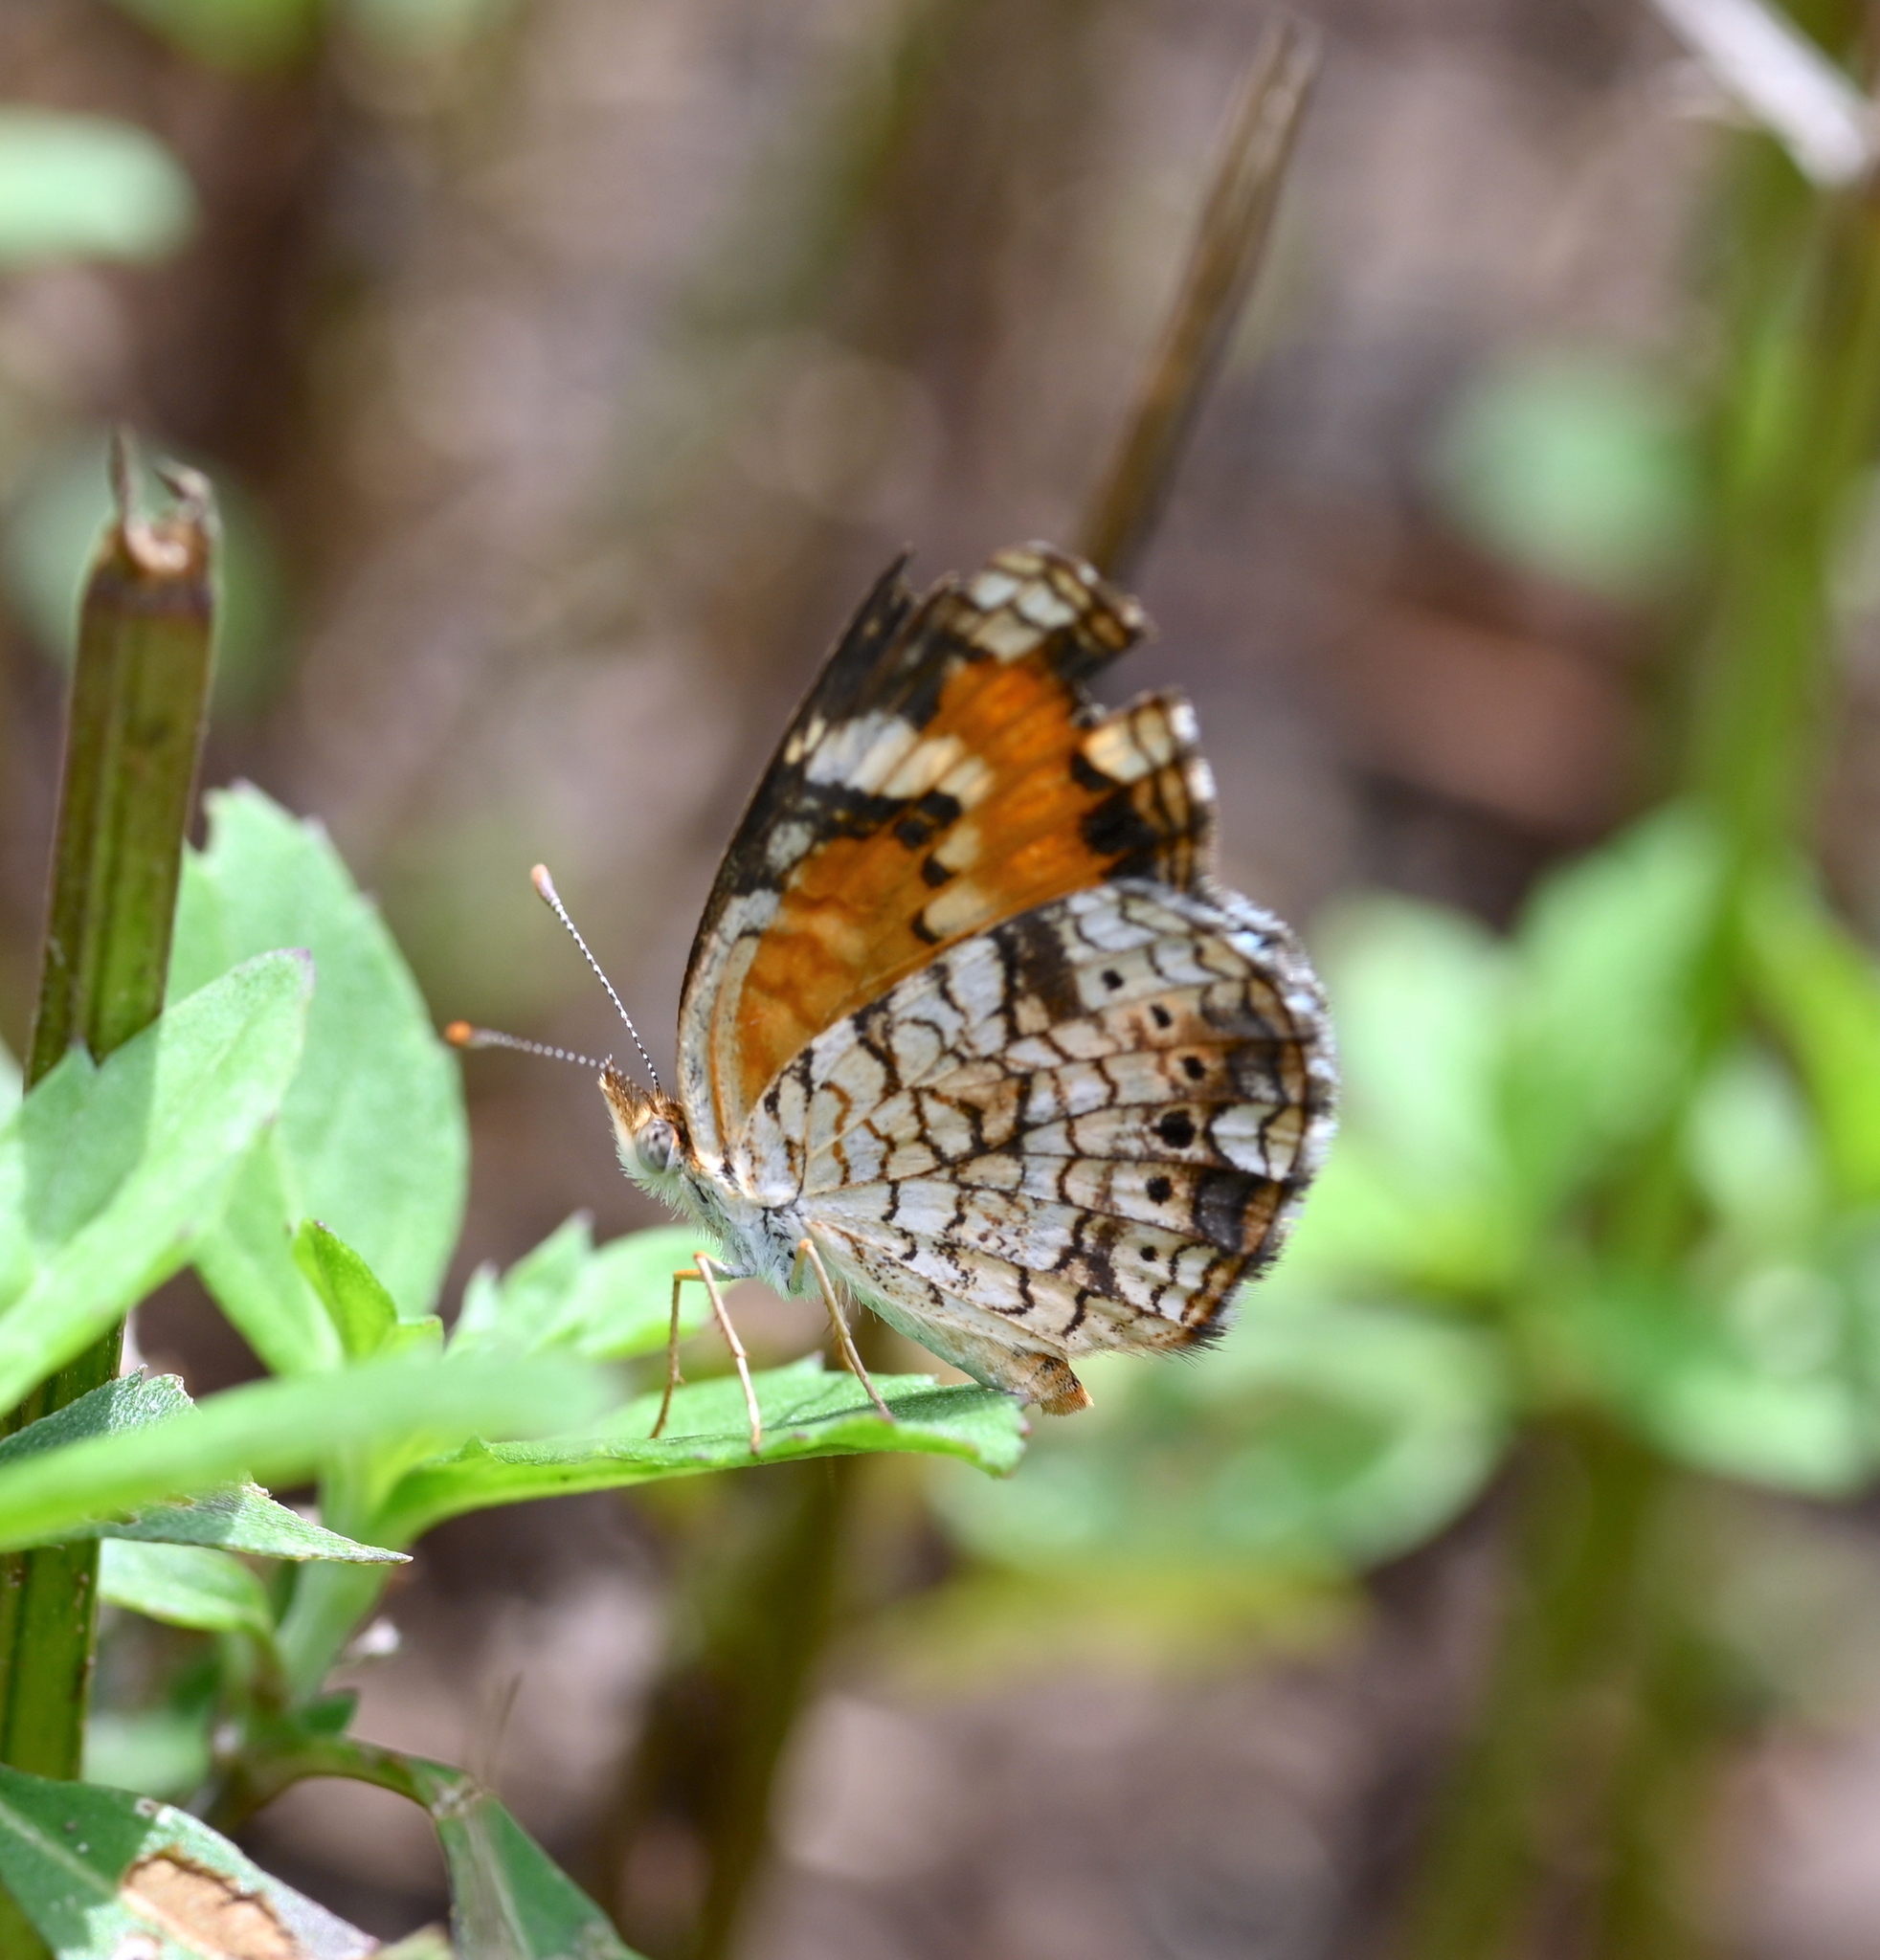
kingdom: Animalia
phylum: Arthropoda
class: Insecta
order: Lepidoptera
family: Nymphalidae
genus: Phyciodes
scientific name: Phyciodes phaon
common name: Phaon crescent
